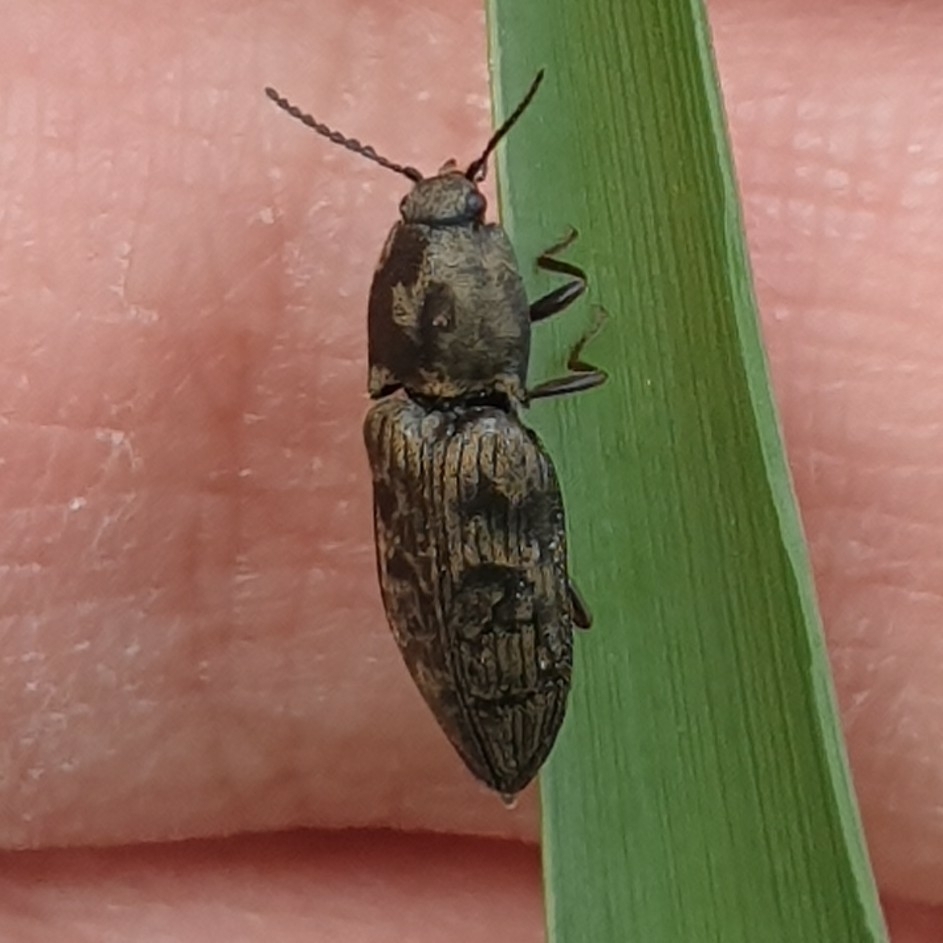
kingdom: Animalia
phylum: Arthropoda
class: Insecta
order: Coleoptera
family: Elateridae
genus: Prosternon
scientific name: Prosternon tessellatum
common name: Chequered click beetle
